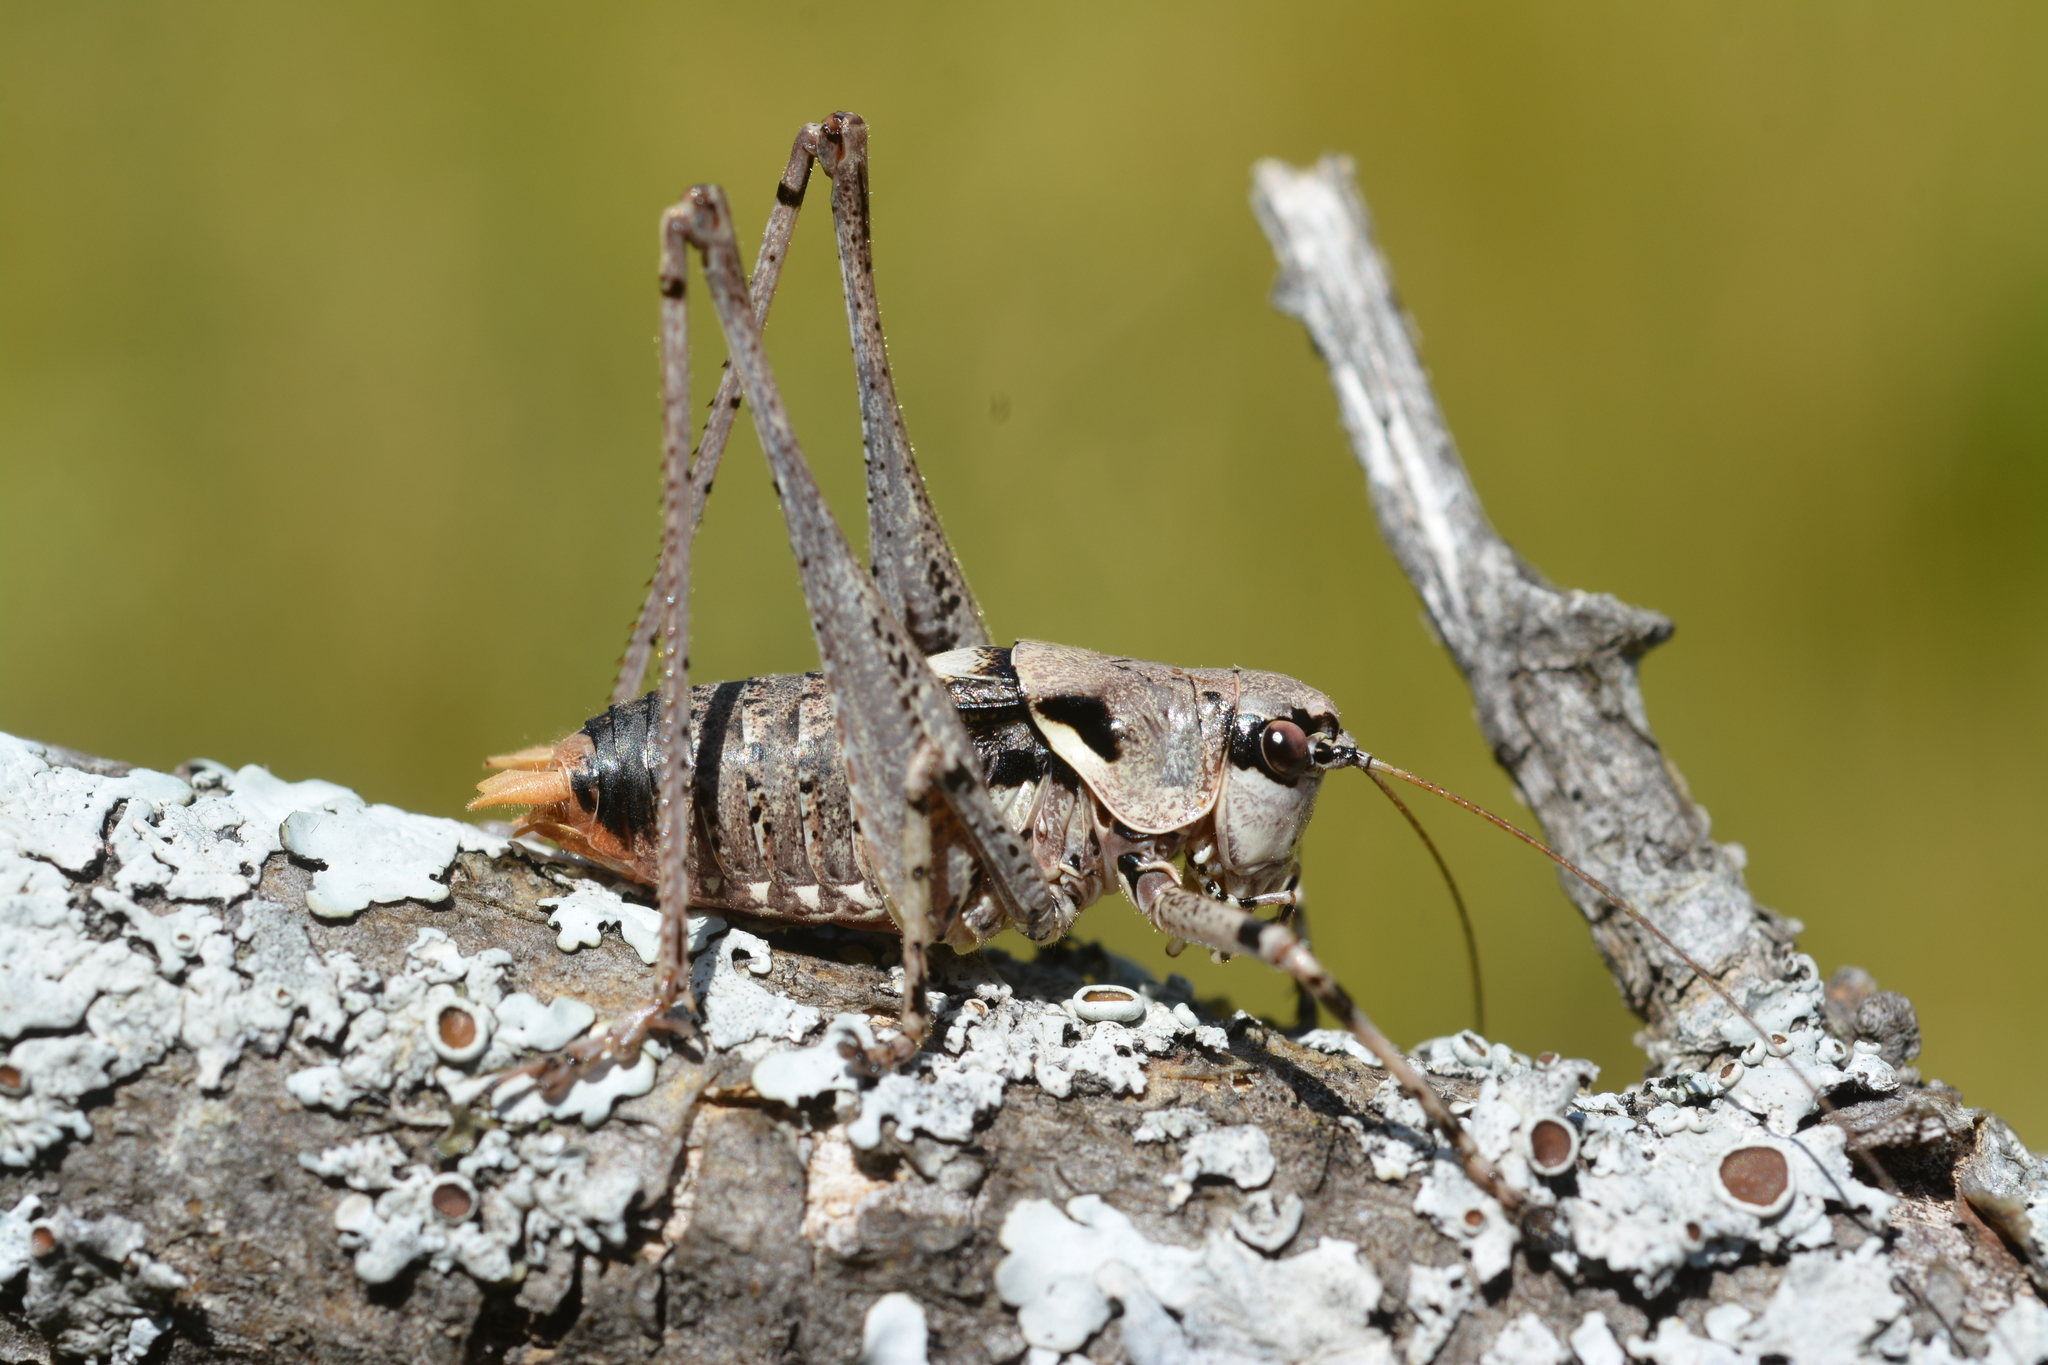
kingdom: Animalia
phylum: Arthropoda
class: Insecta
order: Orthoptera
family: Tettigoniidae
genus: Antaxius
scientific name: Antaxius pedestris
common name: Common mountain bush-cricket
